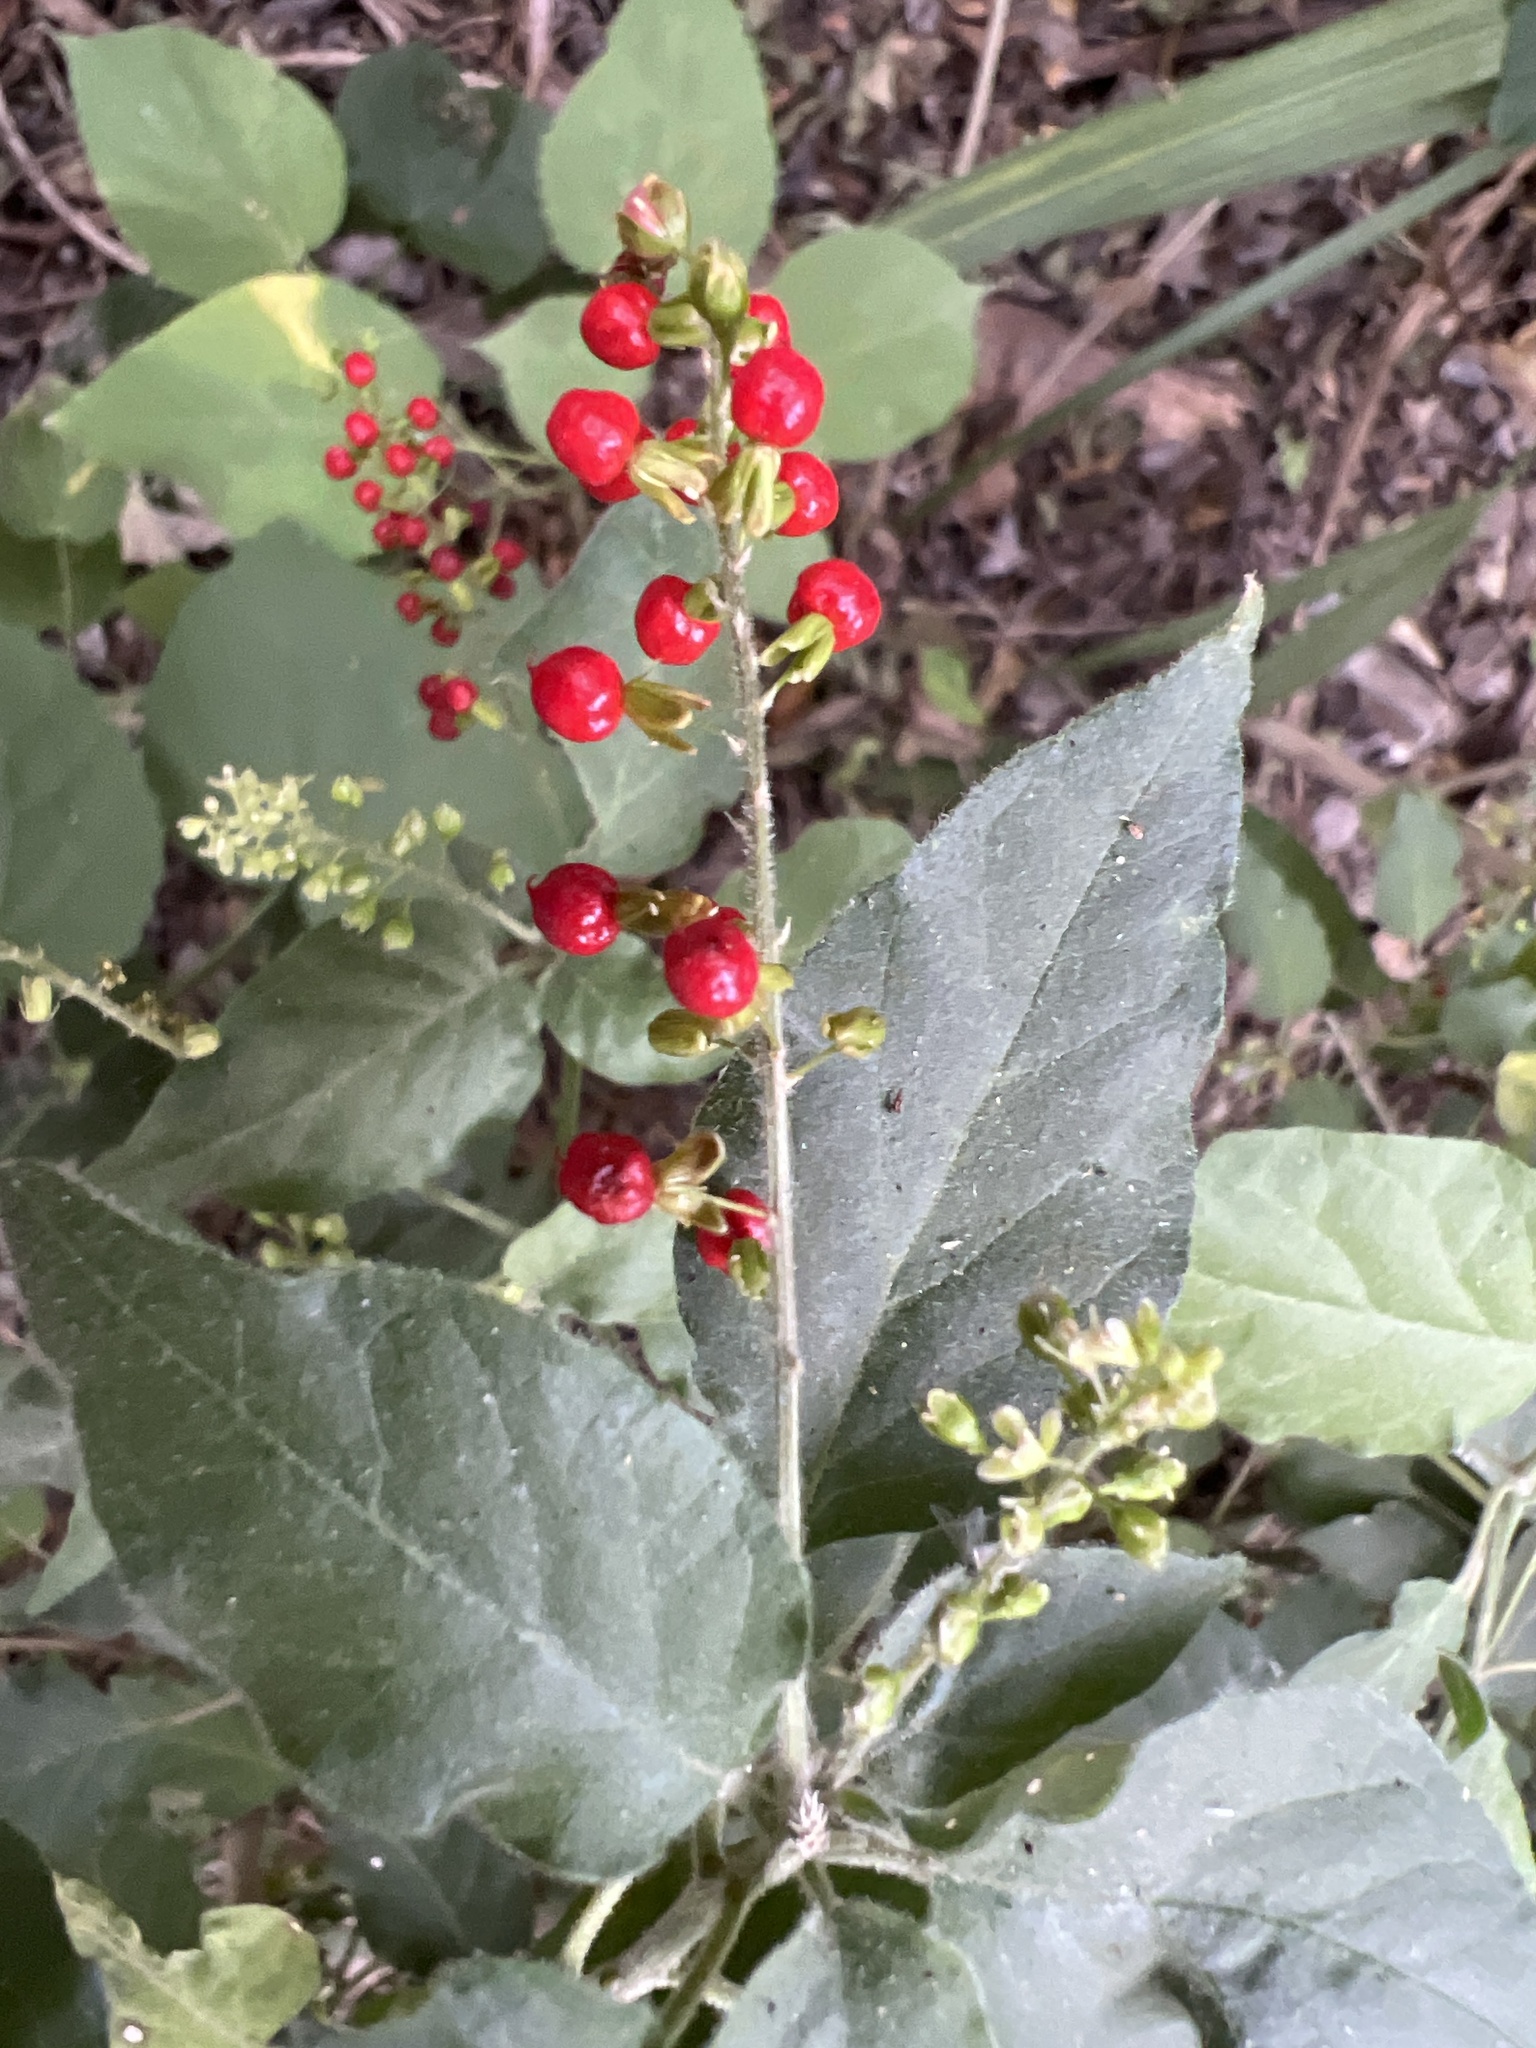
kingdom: Plantae
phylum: Tracheophyta
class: Magnoliopsida
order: Caryophyllales
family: Phytolaccaceae
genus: Rivina
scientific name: Rivina humilis
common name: Rougeplant
